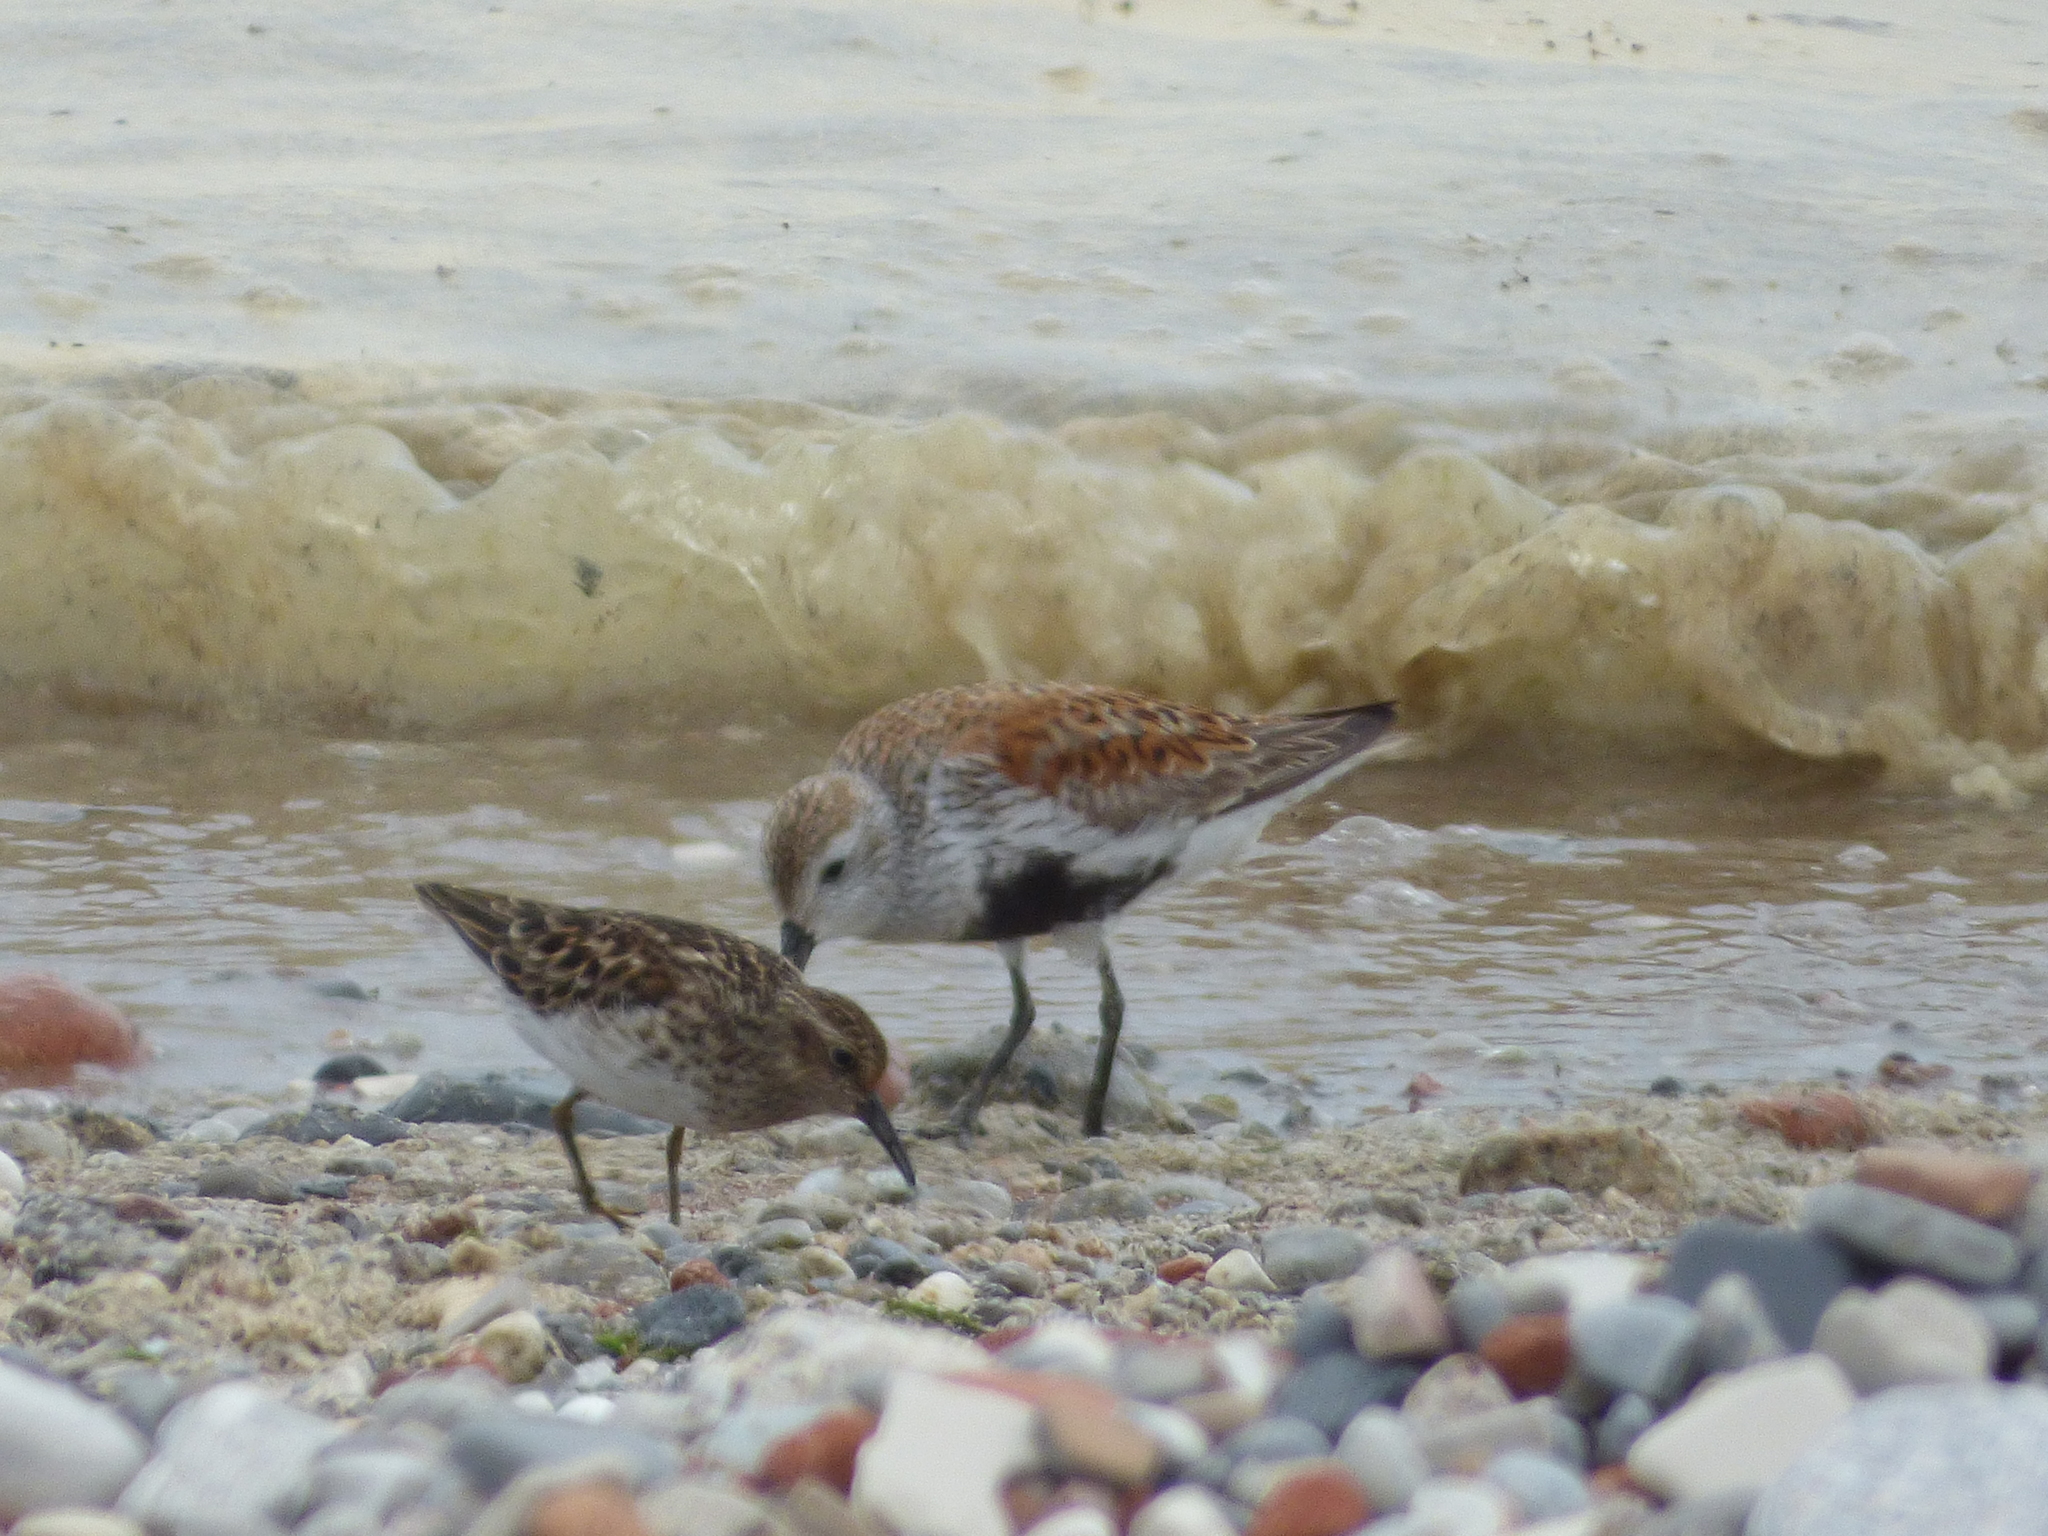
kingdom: Animalia
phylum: Chordata
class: Aves
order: Charadriiformes
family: Scolopacidae
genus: Calidris
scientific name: Calidris alpina
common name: Dunlin
